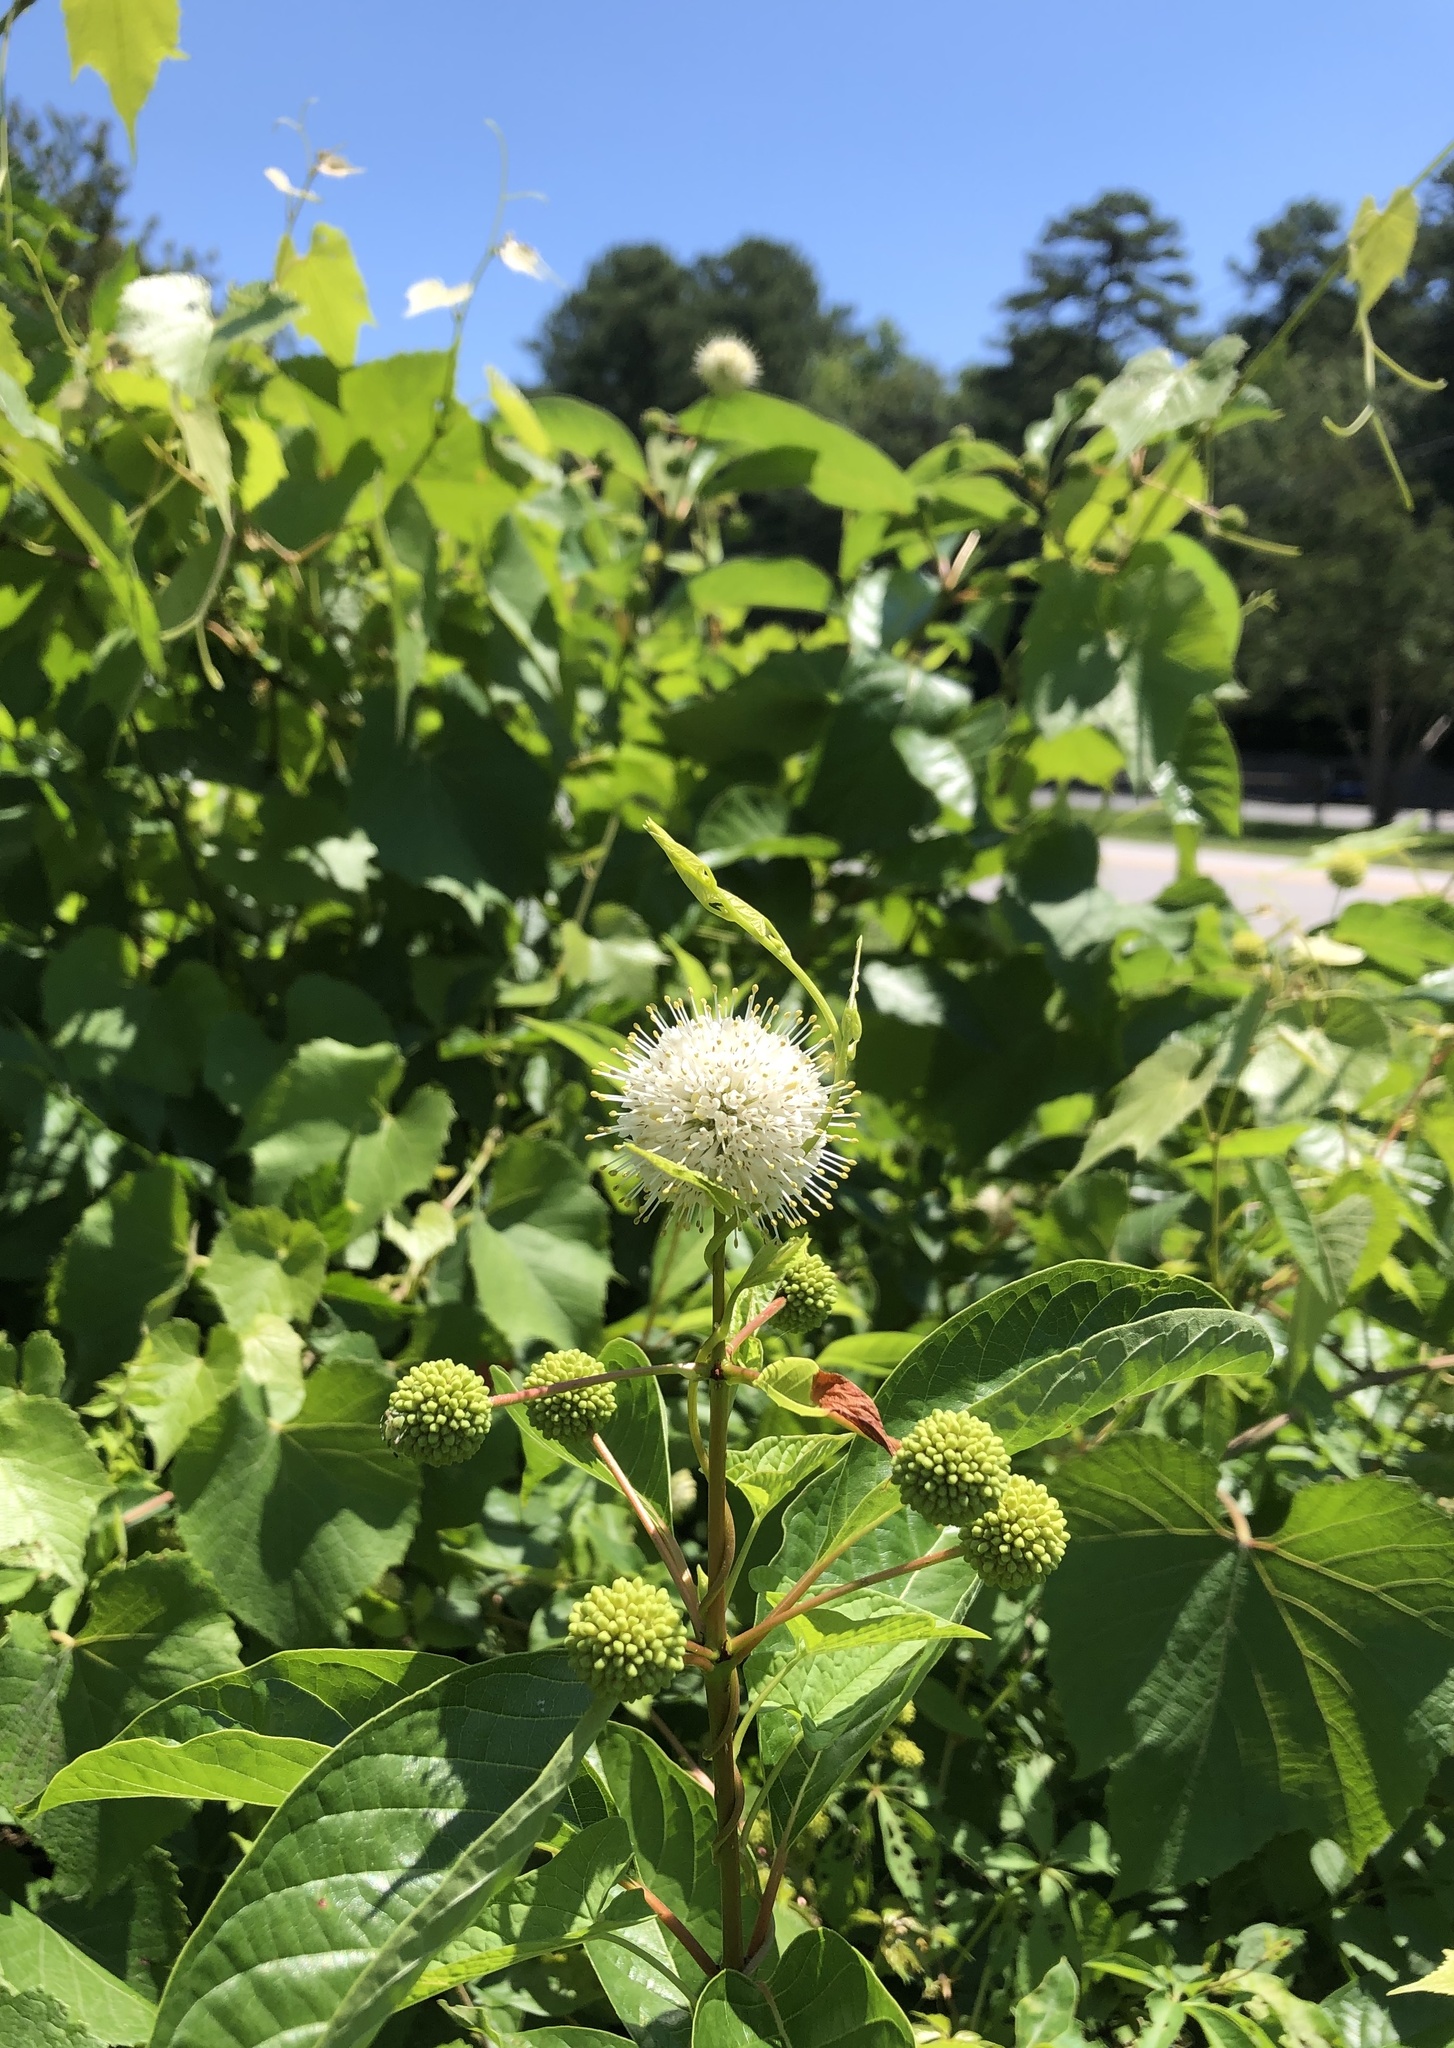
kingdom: Plantae
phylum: Tracheophyta
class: Magnoliopsida
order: Gentianales
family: Rubiaceae
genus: Cephalanthus
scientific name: Cephalanthus occidentalis
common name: Button-willow
